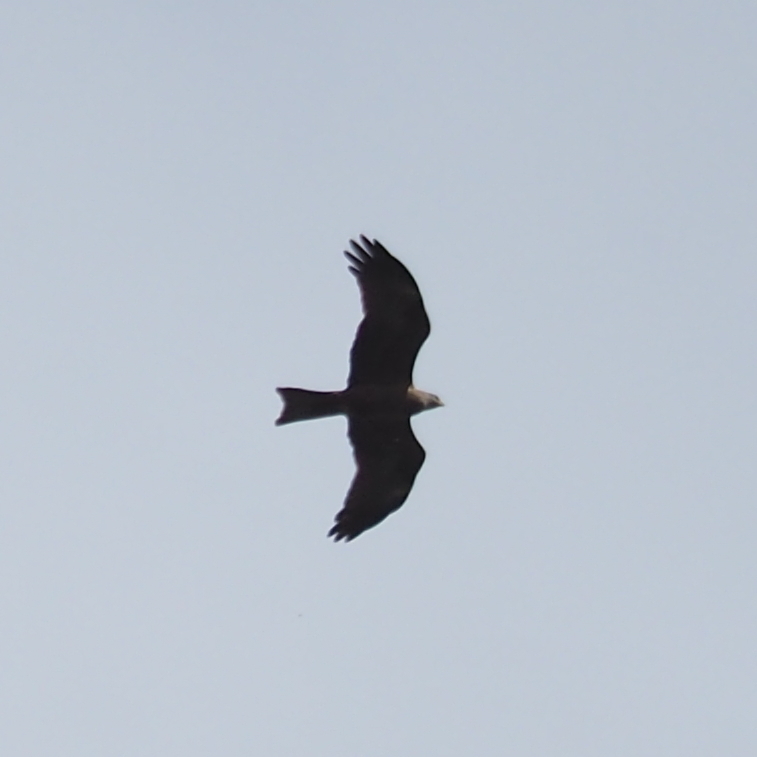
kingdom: Animalia
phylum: Chordata
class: Aves
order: Accipitriformes
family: Accipitridae
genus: Milvus
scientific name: Milvus migrans
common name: Black kite
